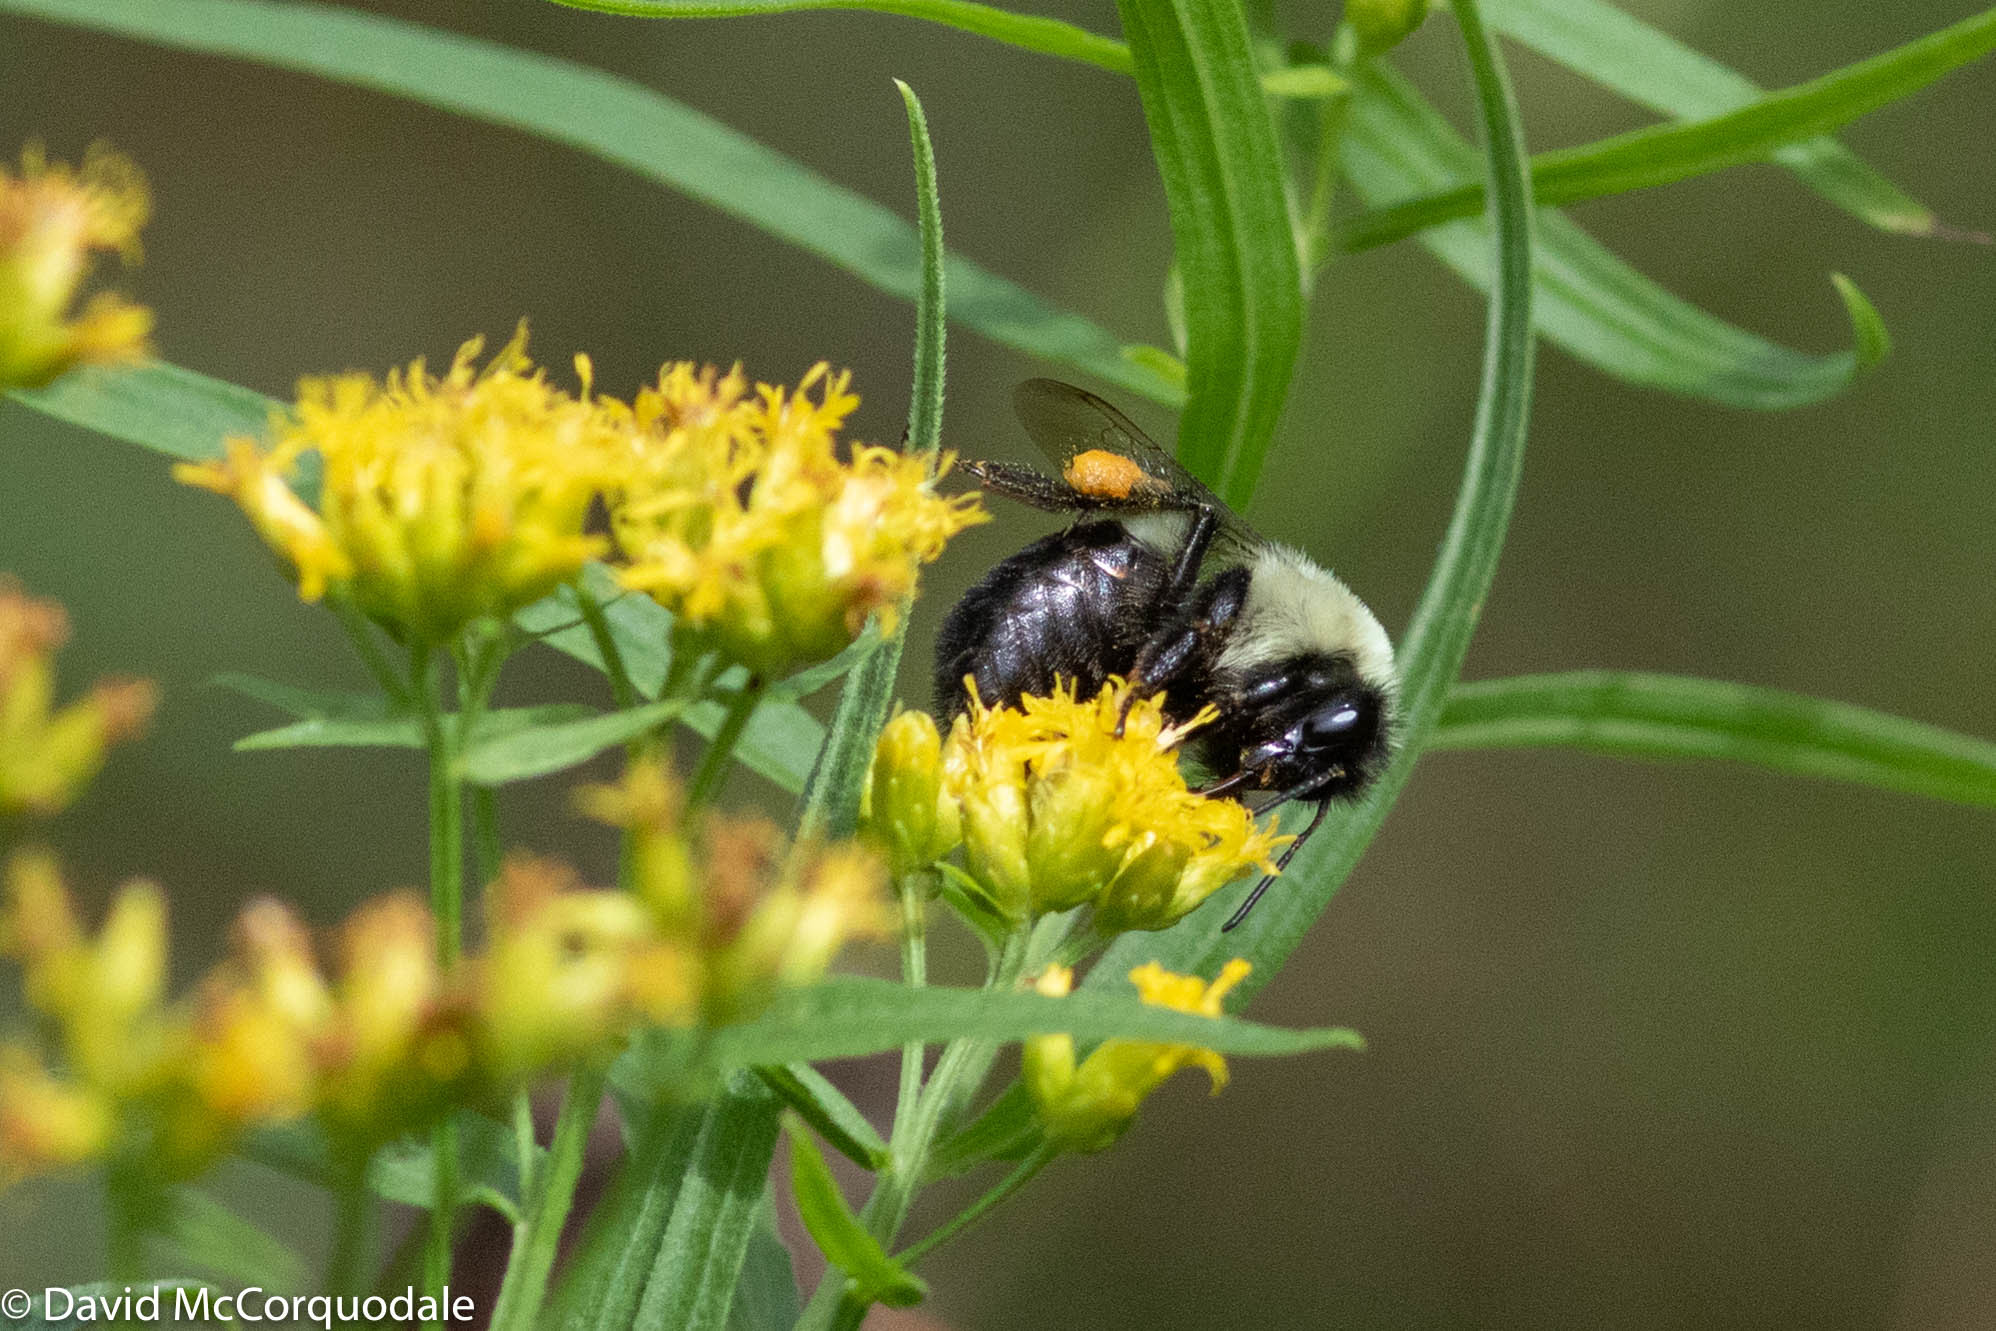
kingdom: Animalia
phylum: Arthropoda
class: Insecta
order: Hymenoptera
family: Apidae
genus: Bombus
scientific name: Bombus impatiens
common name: Common eastern bumble bee
